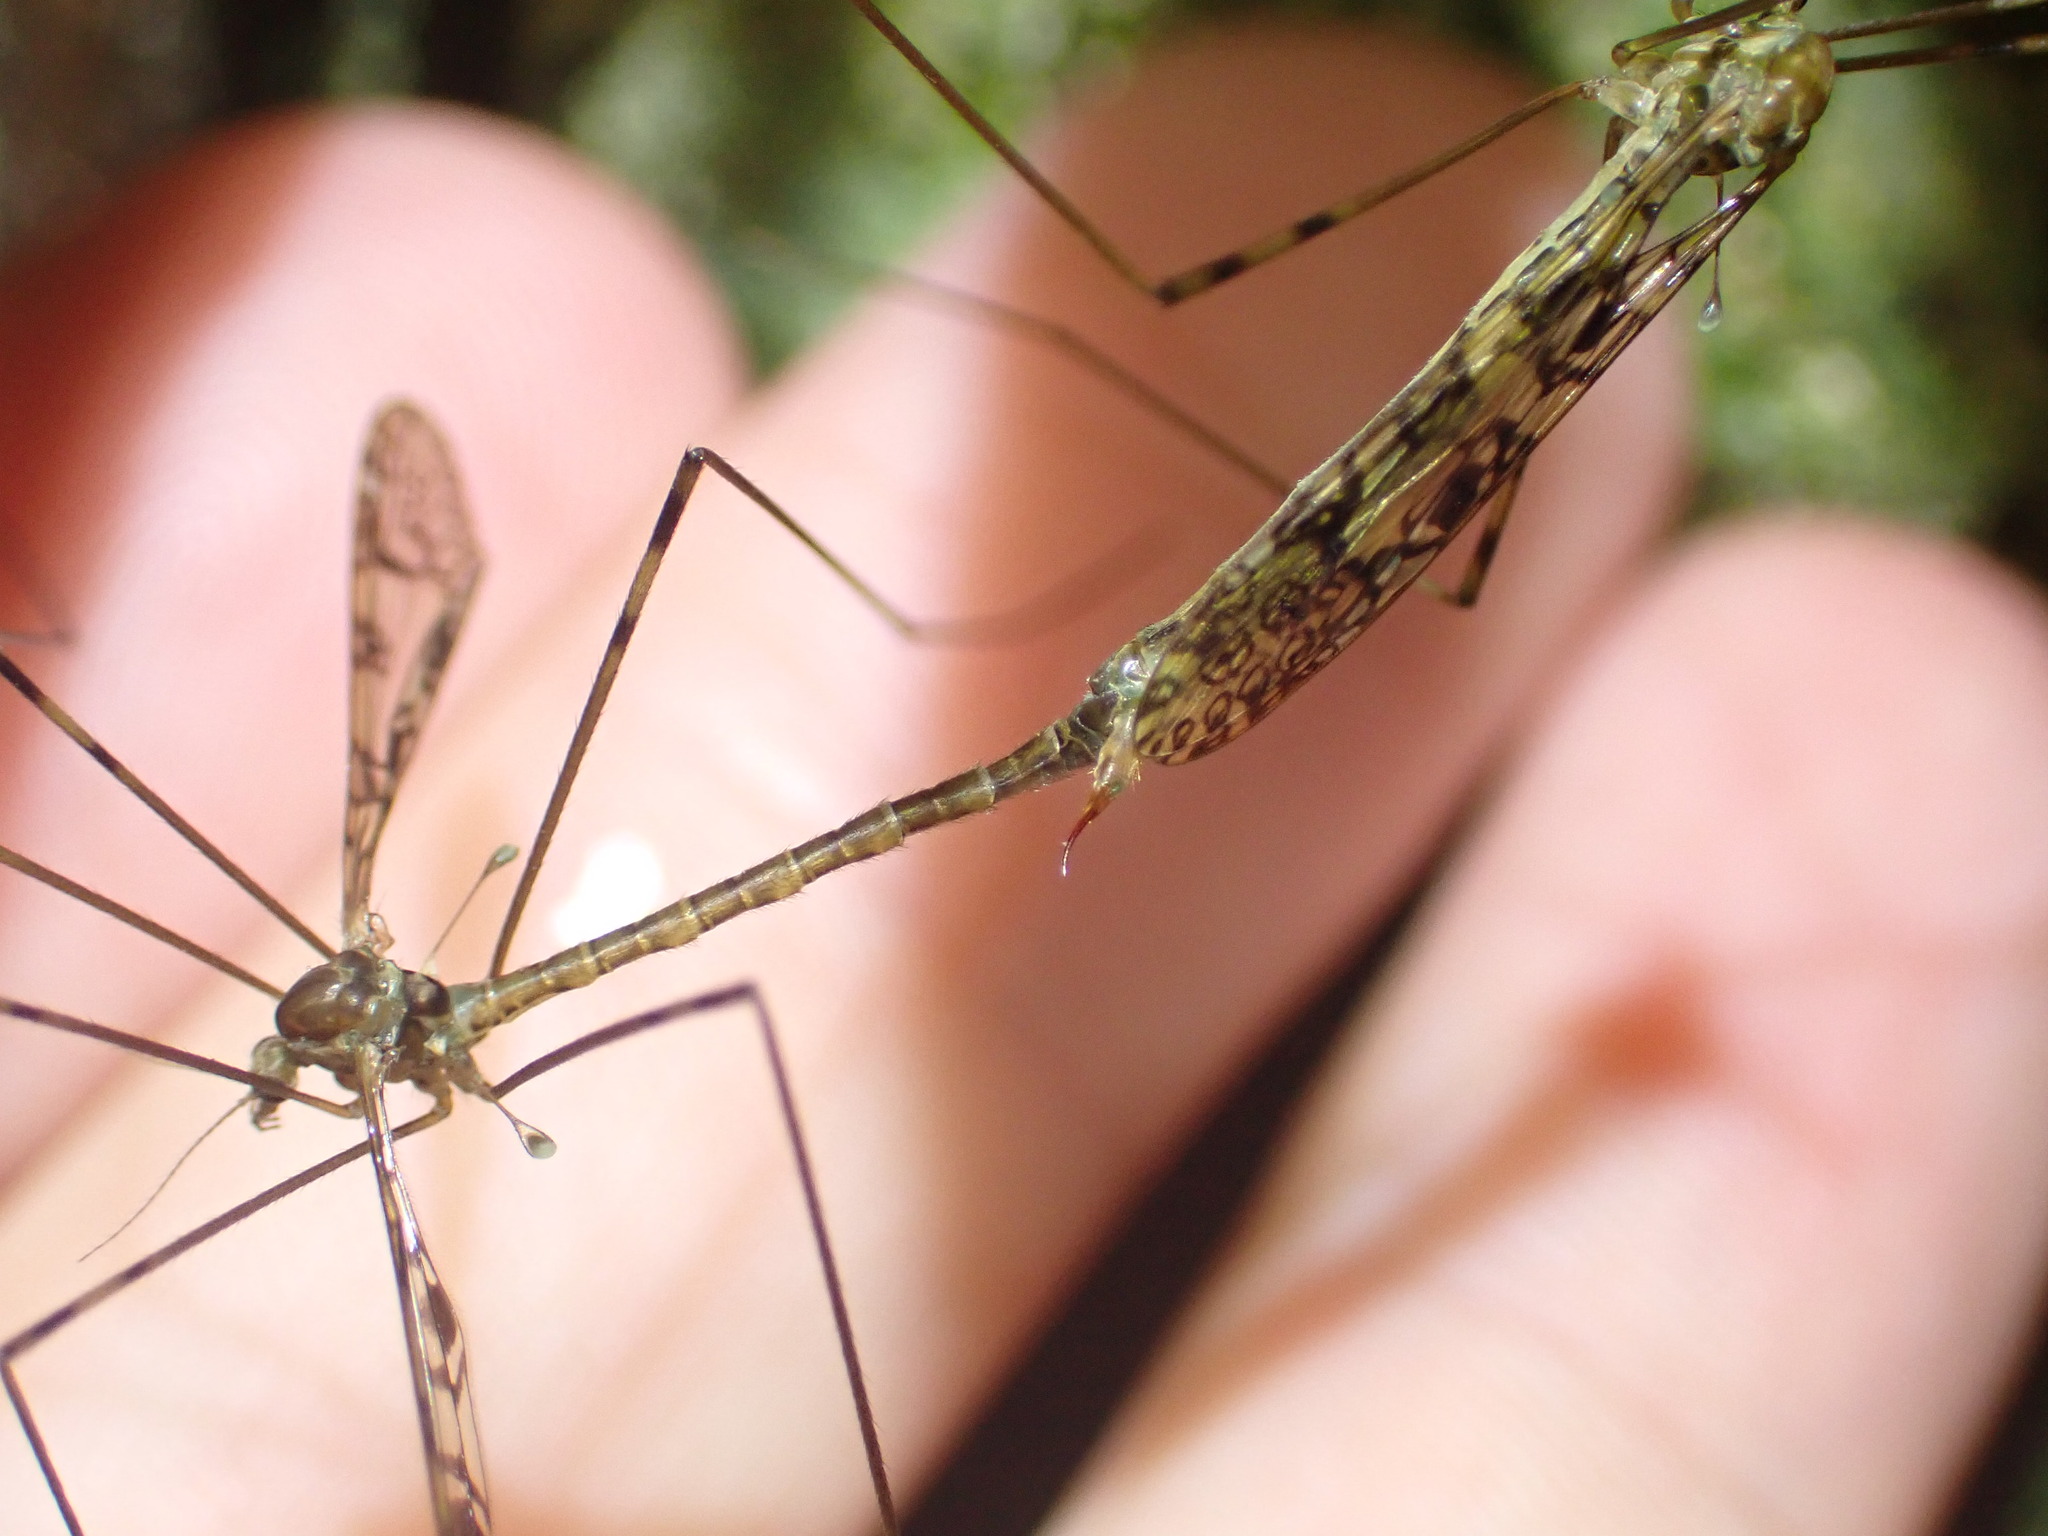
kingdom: Animalia
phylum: Arthropoda
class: Insecta
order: Diptera
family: Limoniidae
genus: Austrolimnophila
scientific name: Austrolimnophila argus
